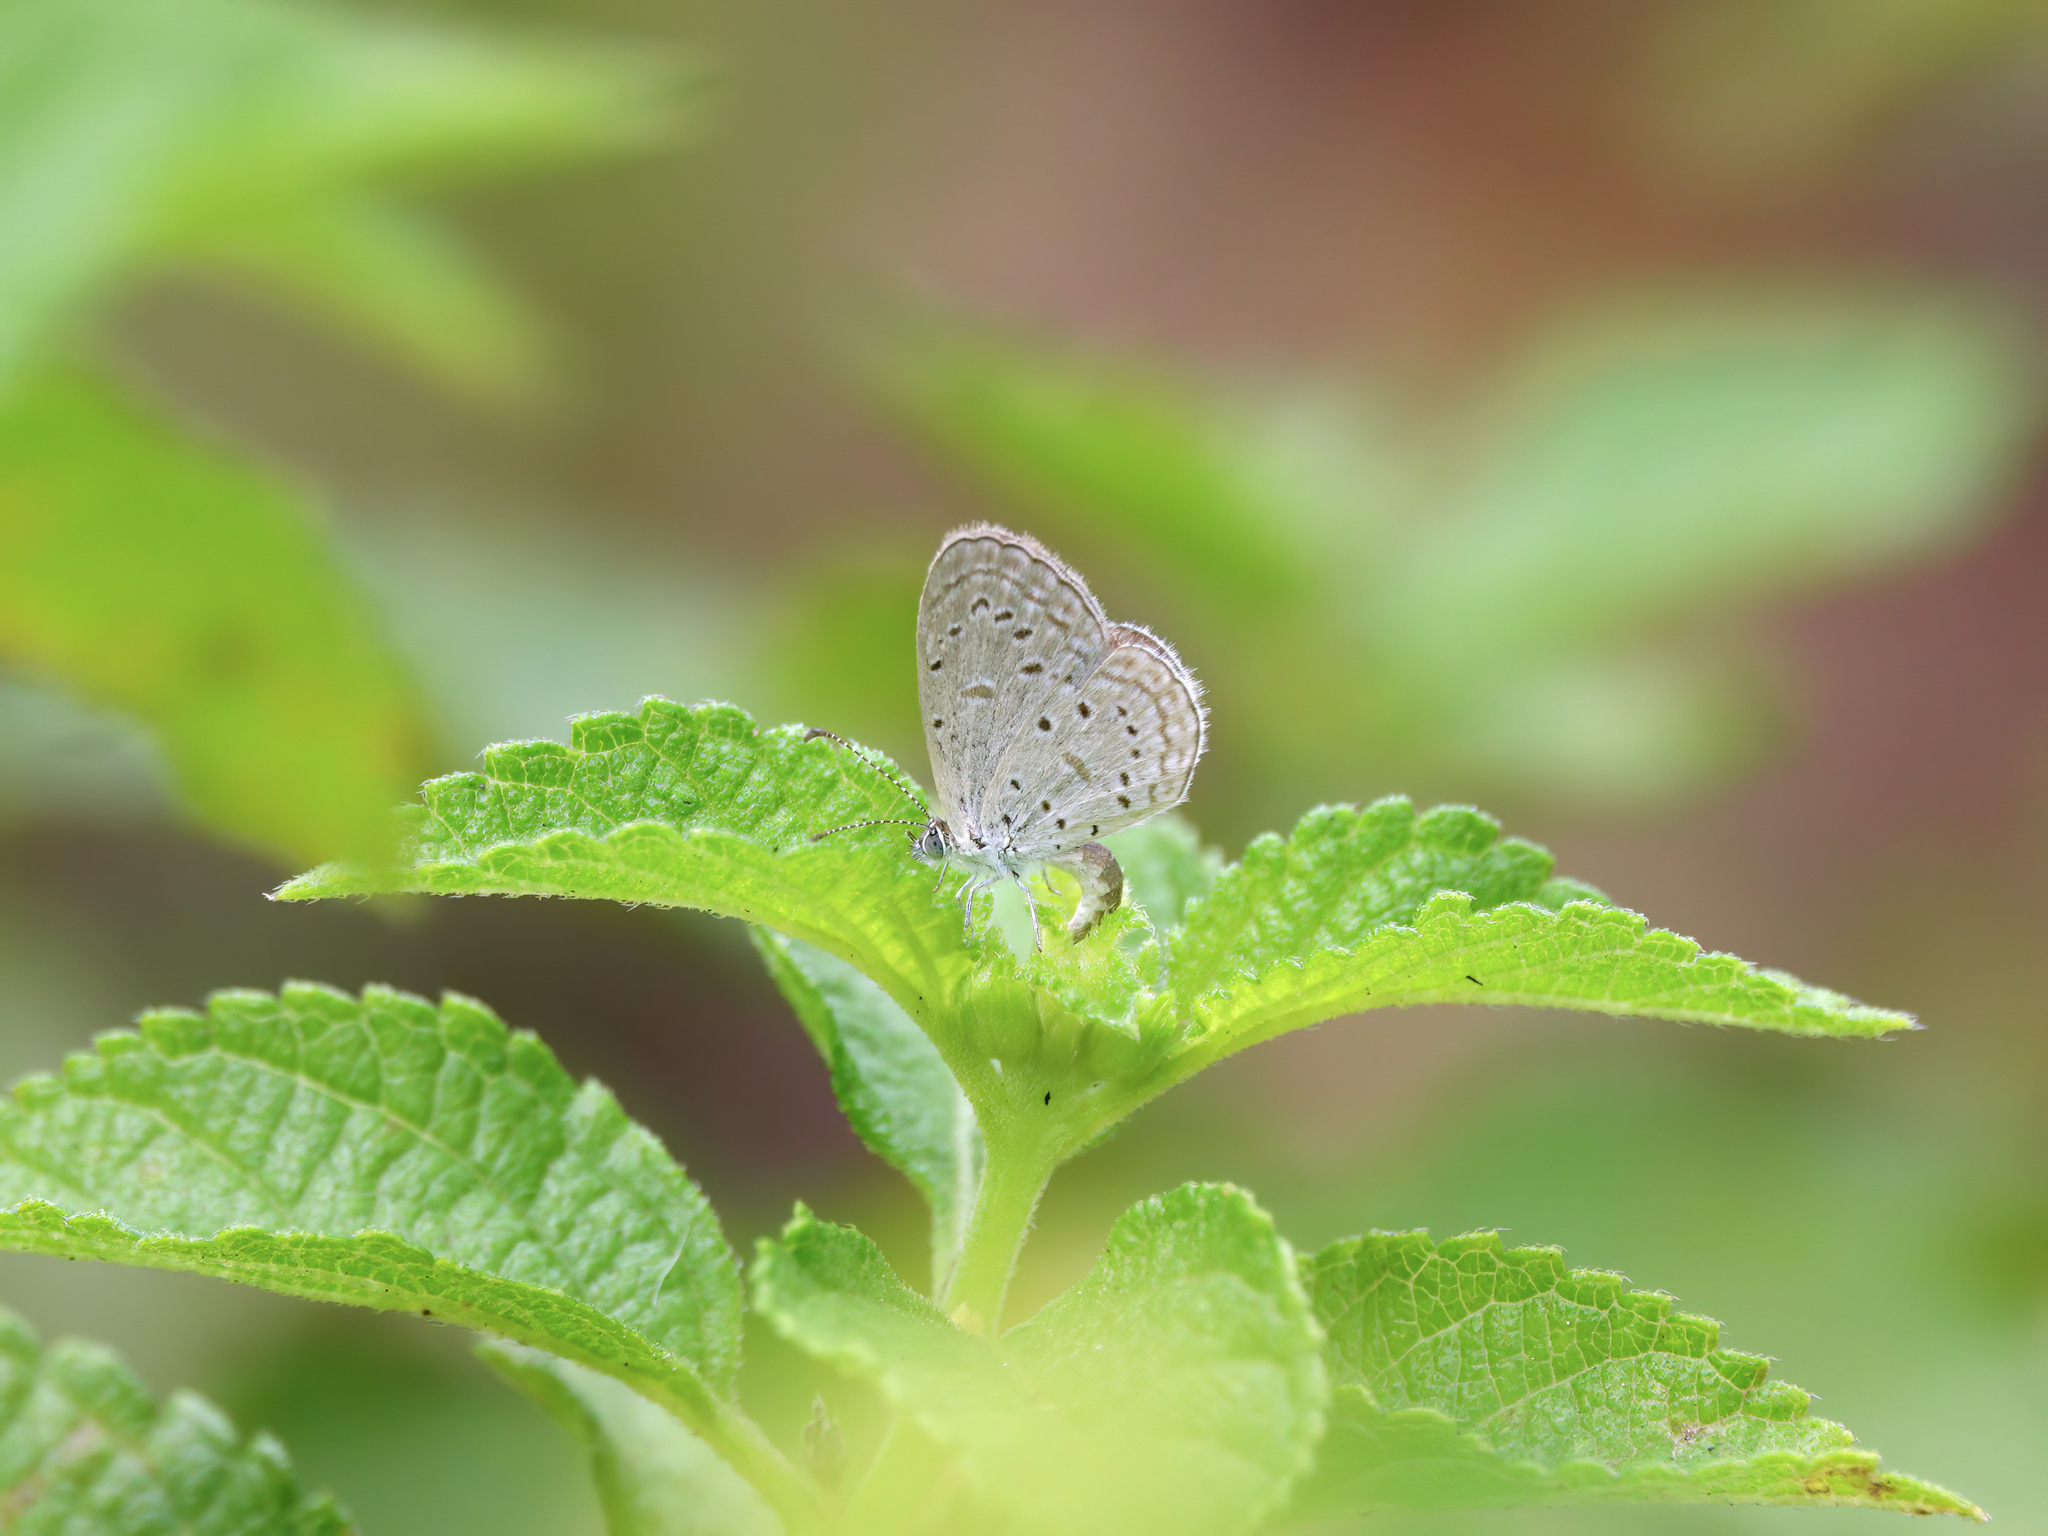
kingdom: Animalia
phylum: Arthropoda
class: Insecta
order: Lepidoptera
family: Lycaenidae
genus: Zizula
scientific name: Zizula hylax
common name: Gaika blue
